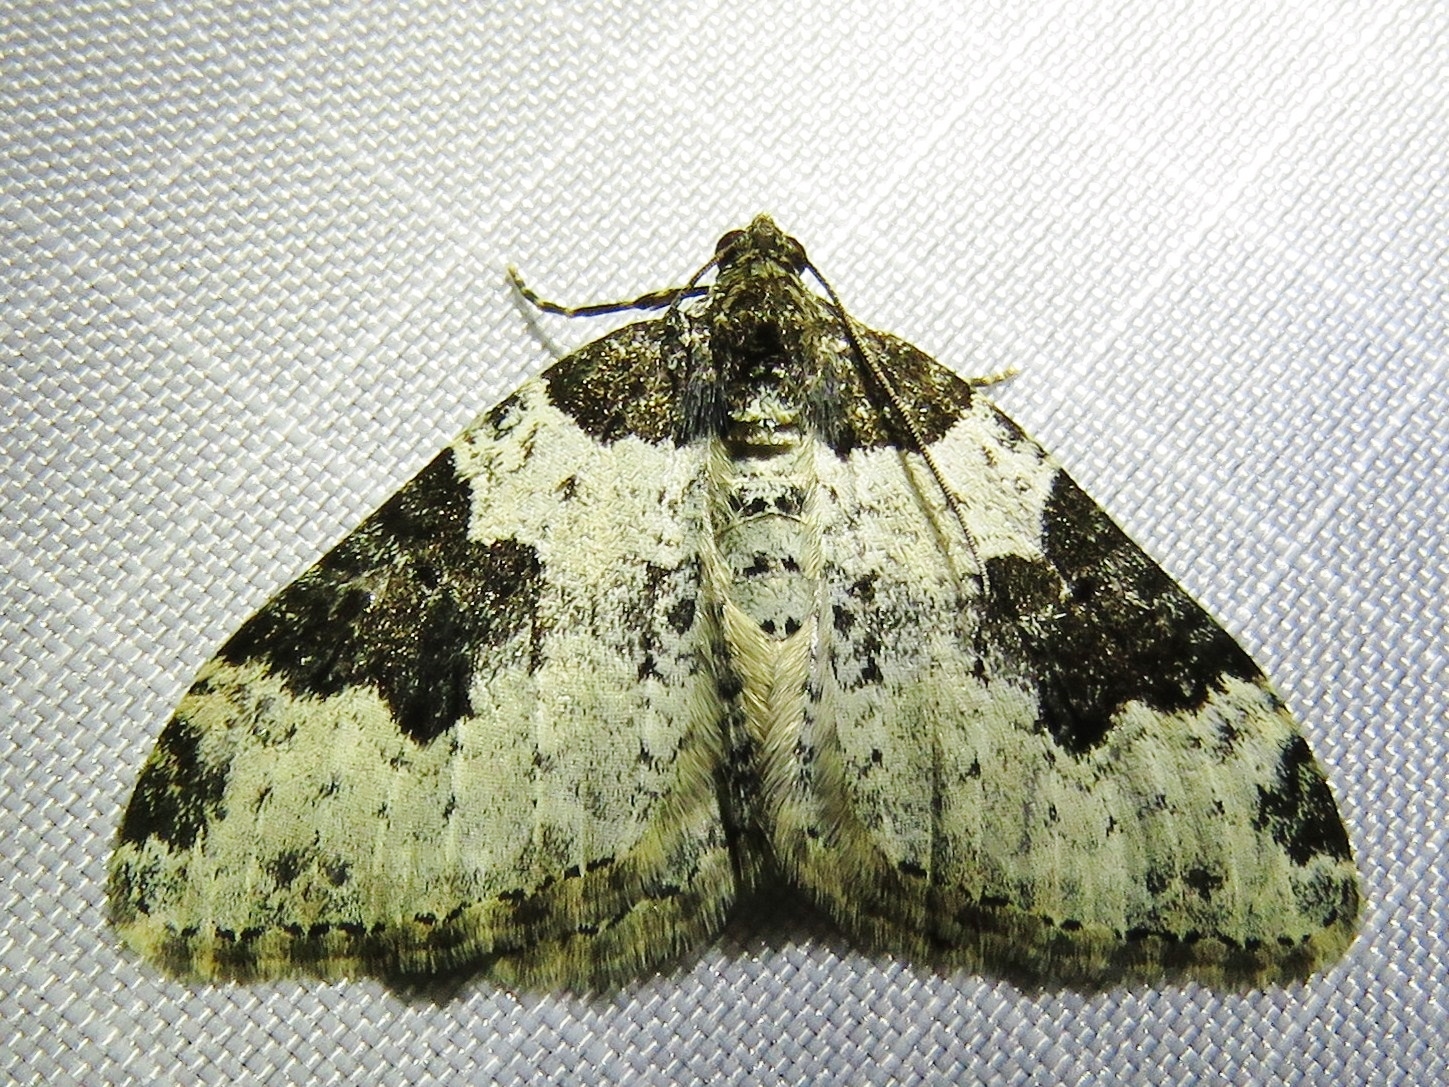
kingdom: Animalia
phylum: Arthropoda
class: Insecta
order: Lepidoptera
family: Geometridae
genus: Xanthorhoe
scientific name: Xanthorhoe fluctuata
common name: Garden carpet
